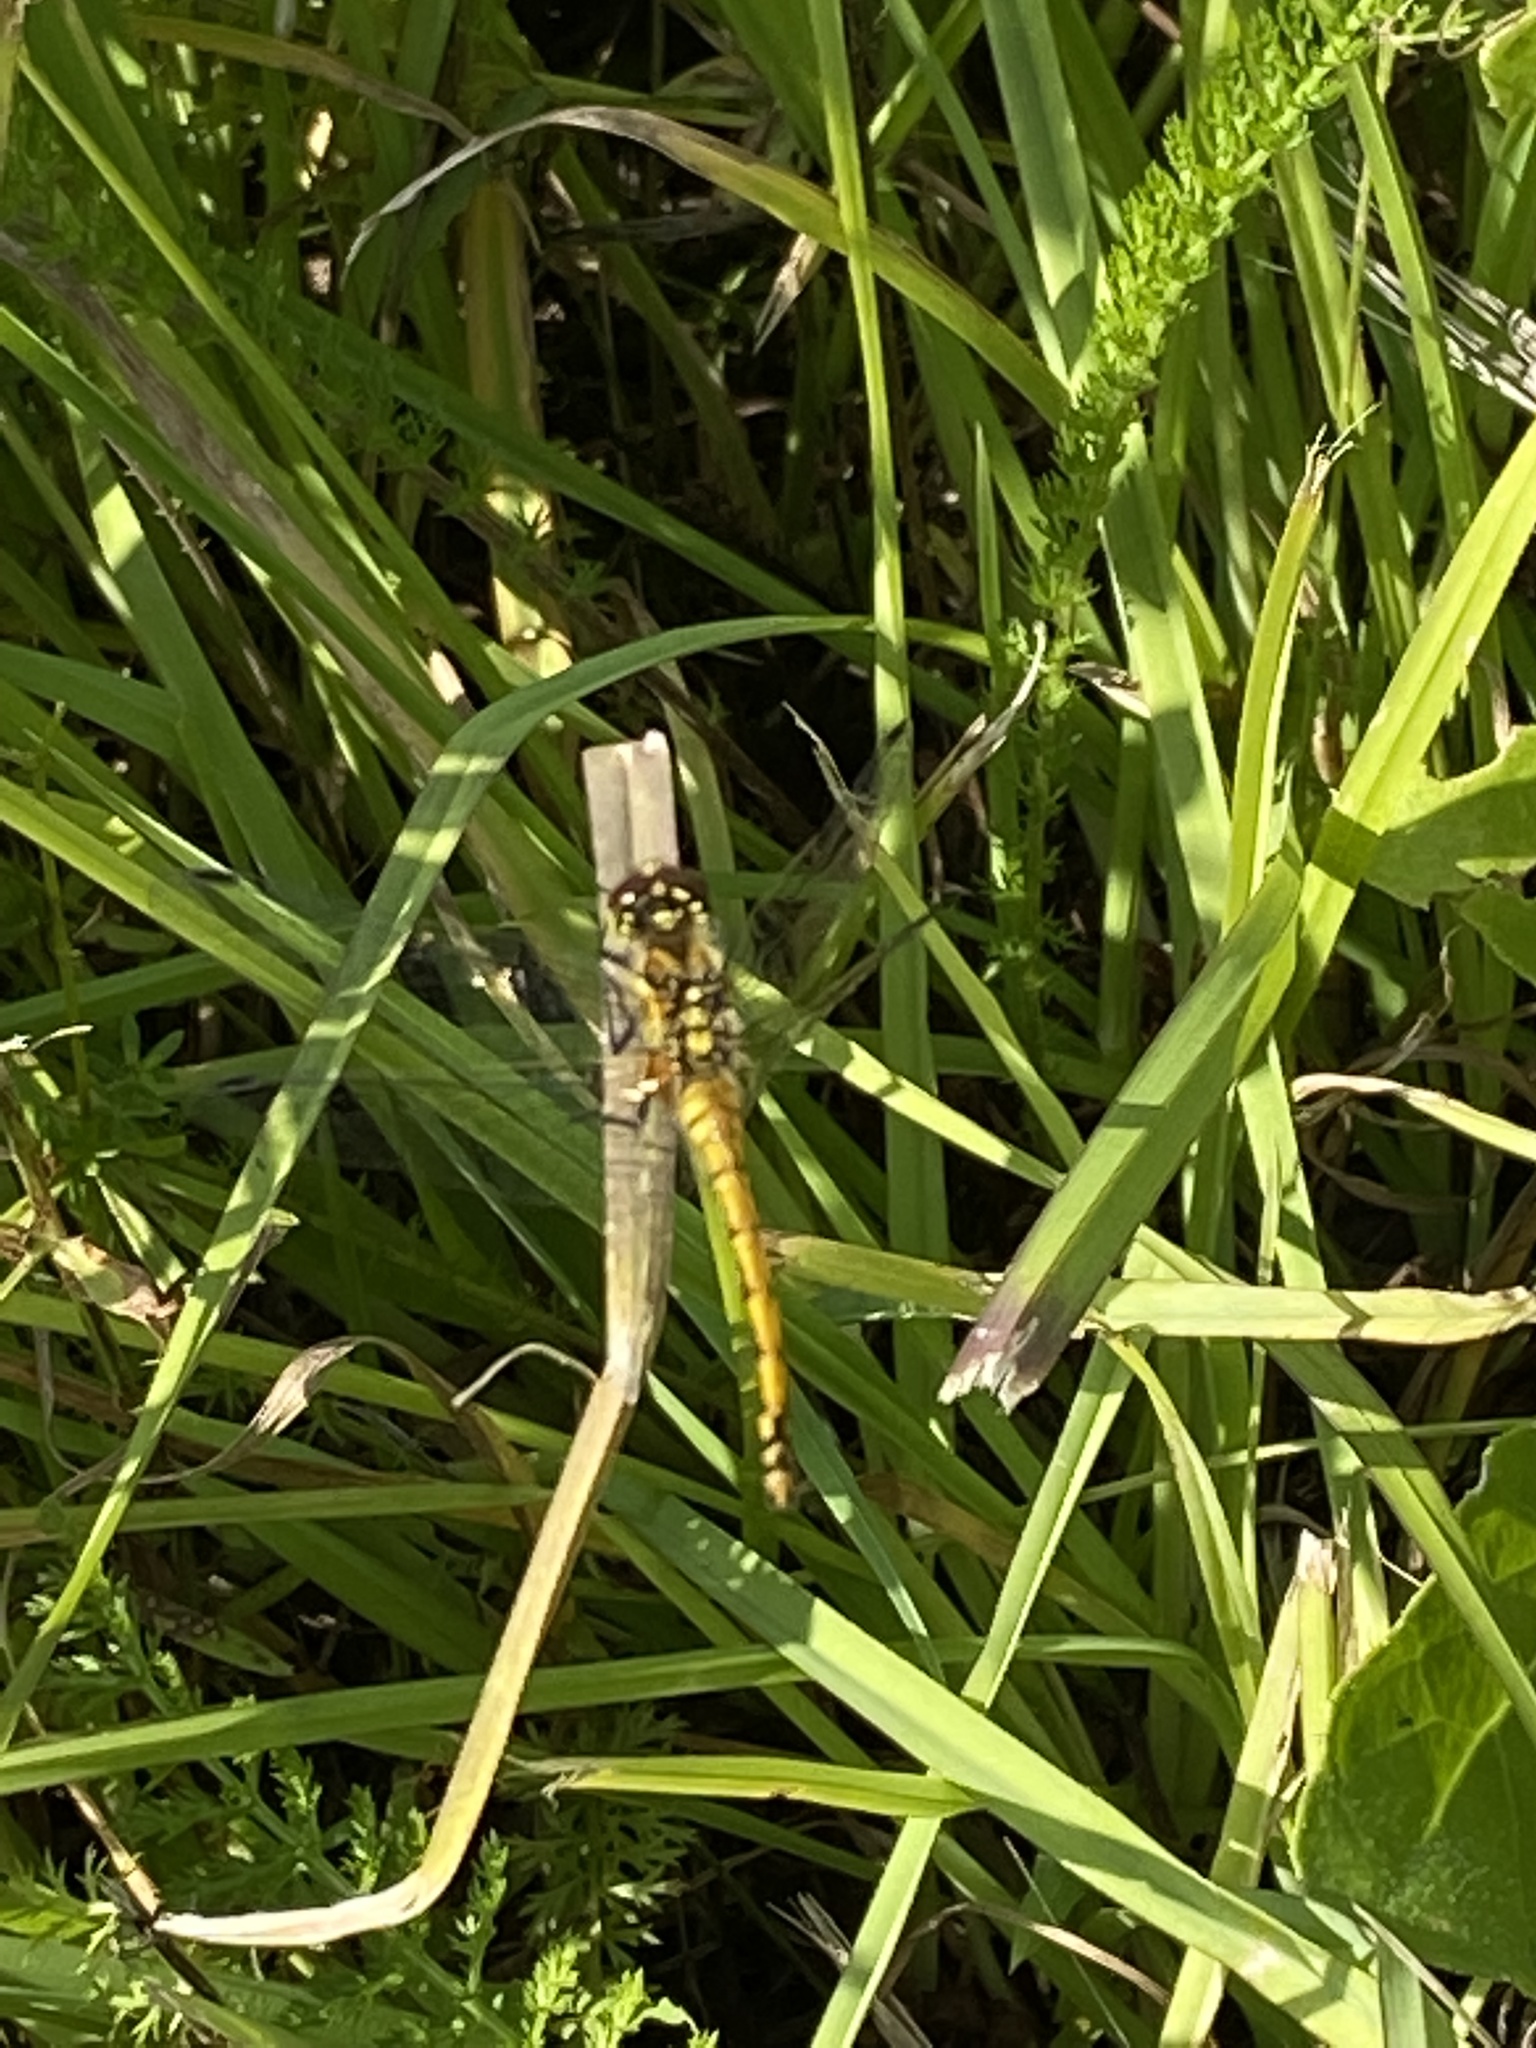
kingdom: Animalia
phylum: Arthropoda
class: Insecta
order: Odonata
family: Libellulidae
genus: Sympetrum
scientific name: Sympetrum danae
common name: Black darter
